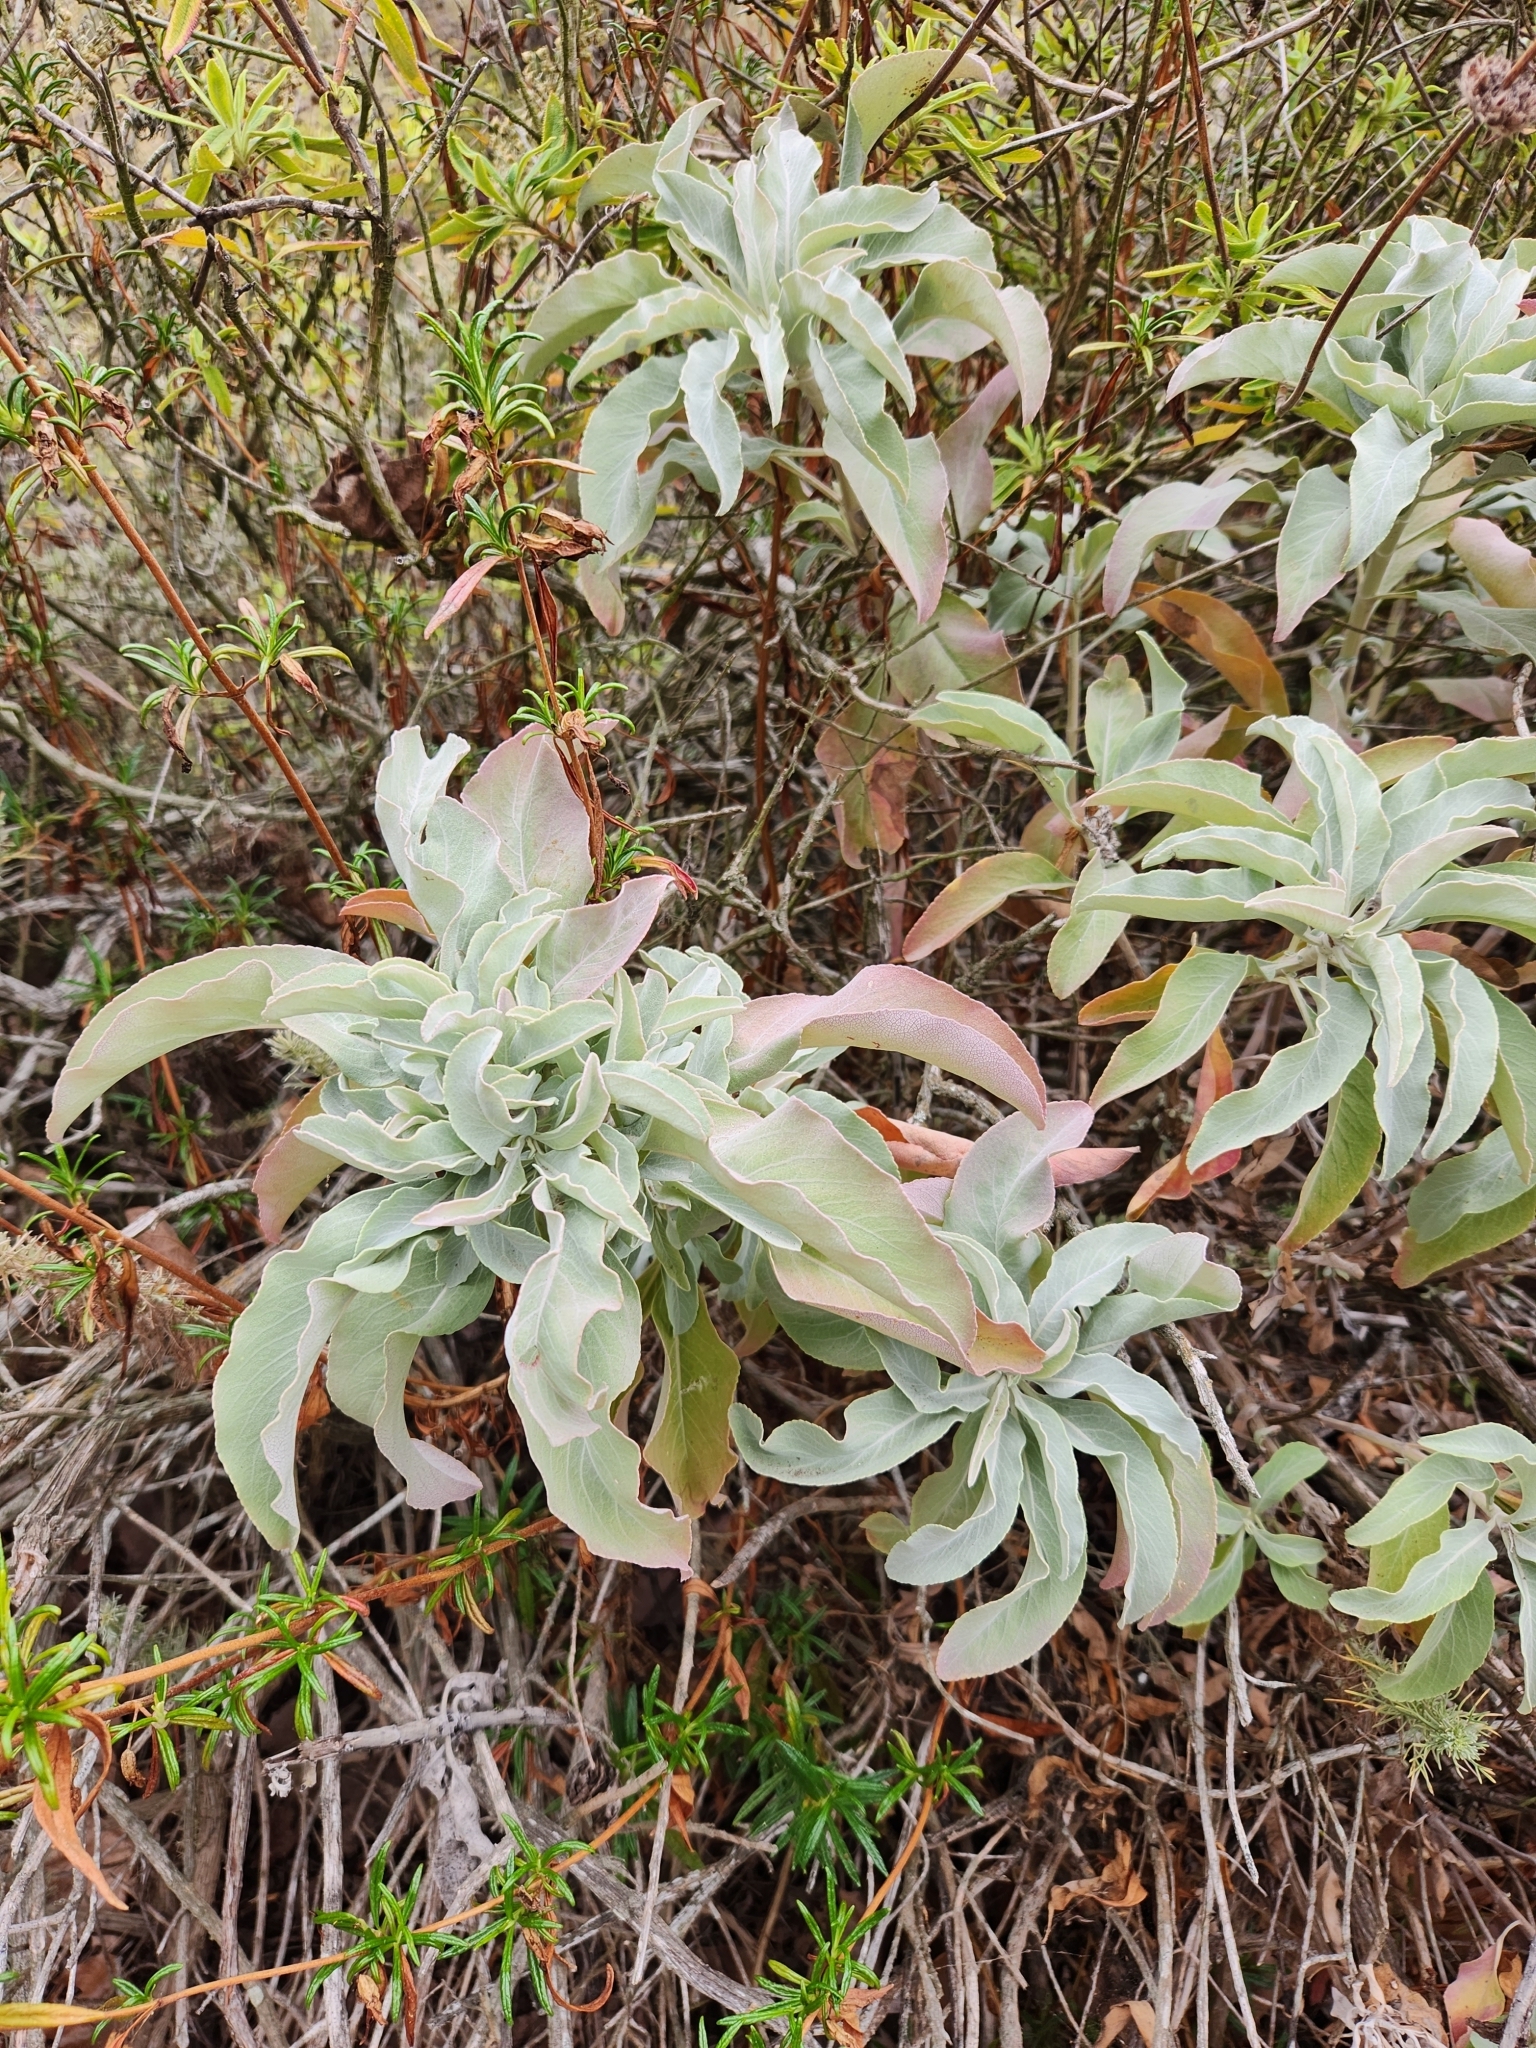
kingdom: Plantae
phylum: Tracheophyta
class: Magnoliopsida
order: Lamiales
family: Lamiaceae
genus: Salvia
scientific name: Salvia apiana
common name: White sage
